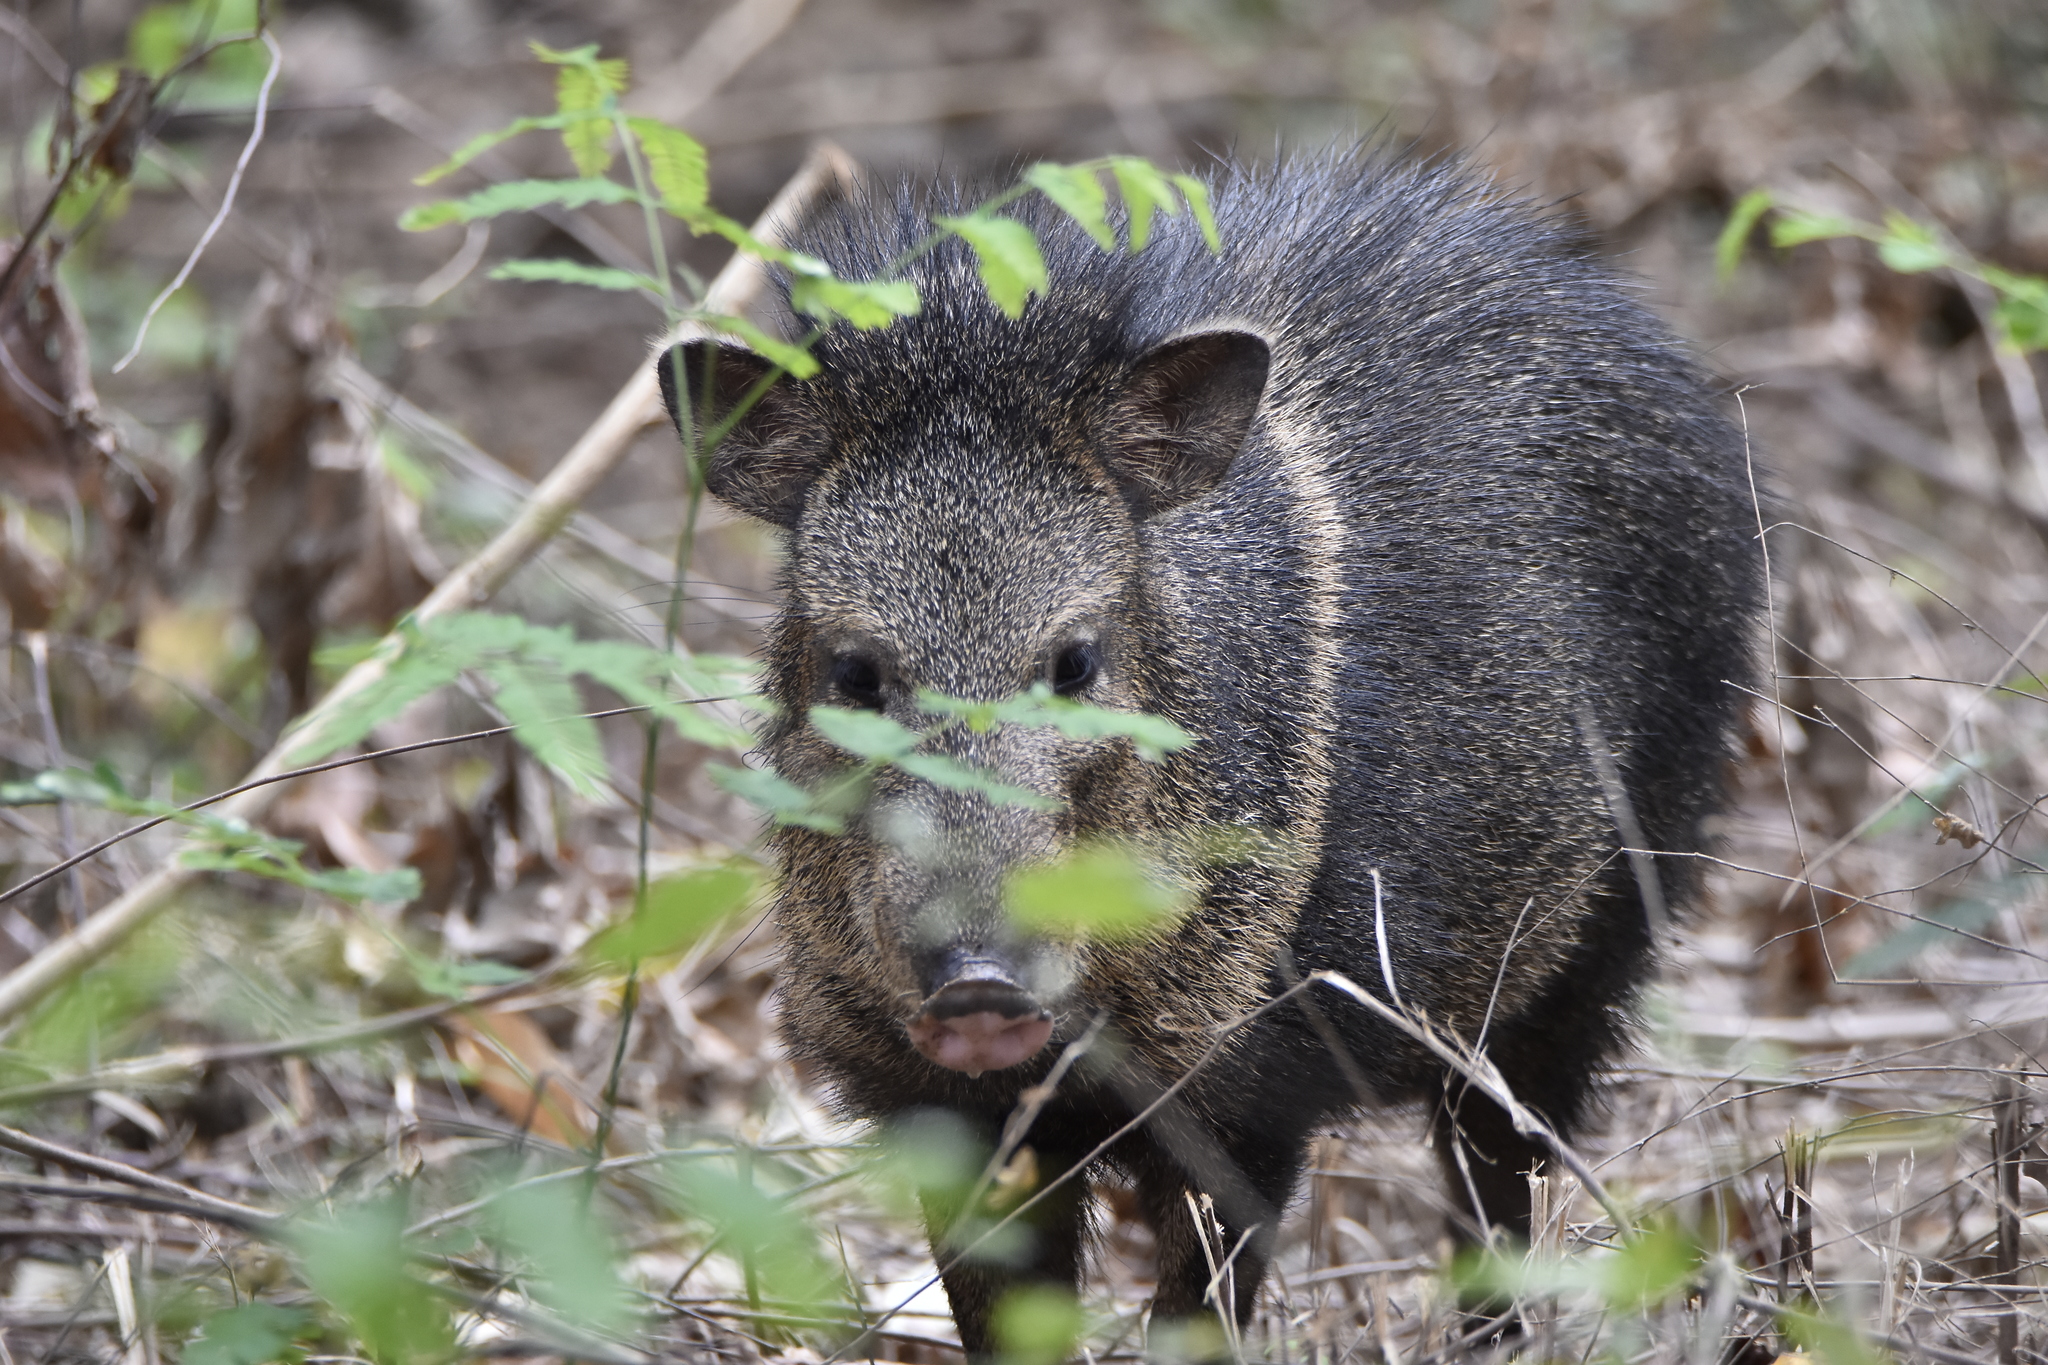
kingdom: Animalia
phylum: Chordata
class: Mammalia
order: Artiodactyla
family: Tayassuidae
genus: Pecari
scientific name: Pecari tajacu
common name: Collared peccary
